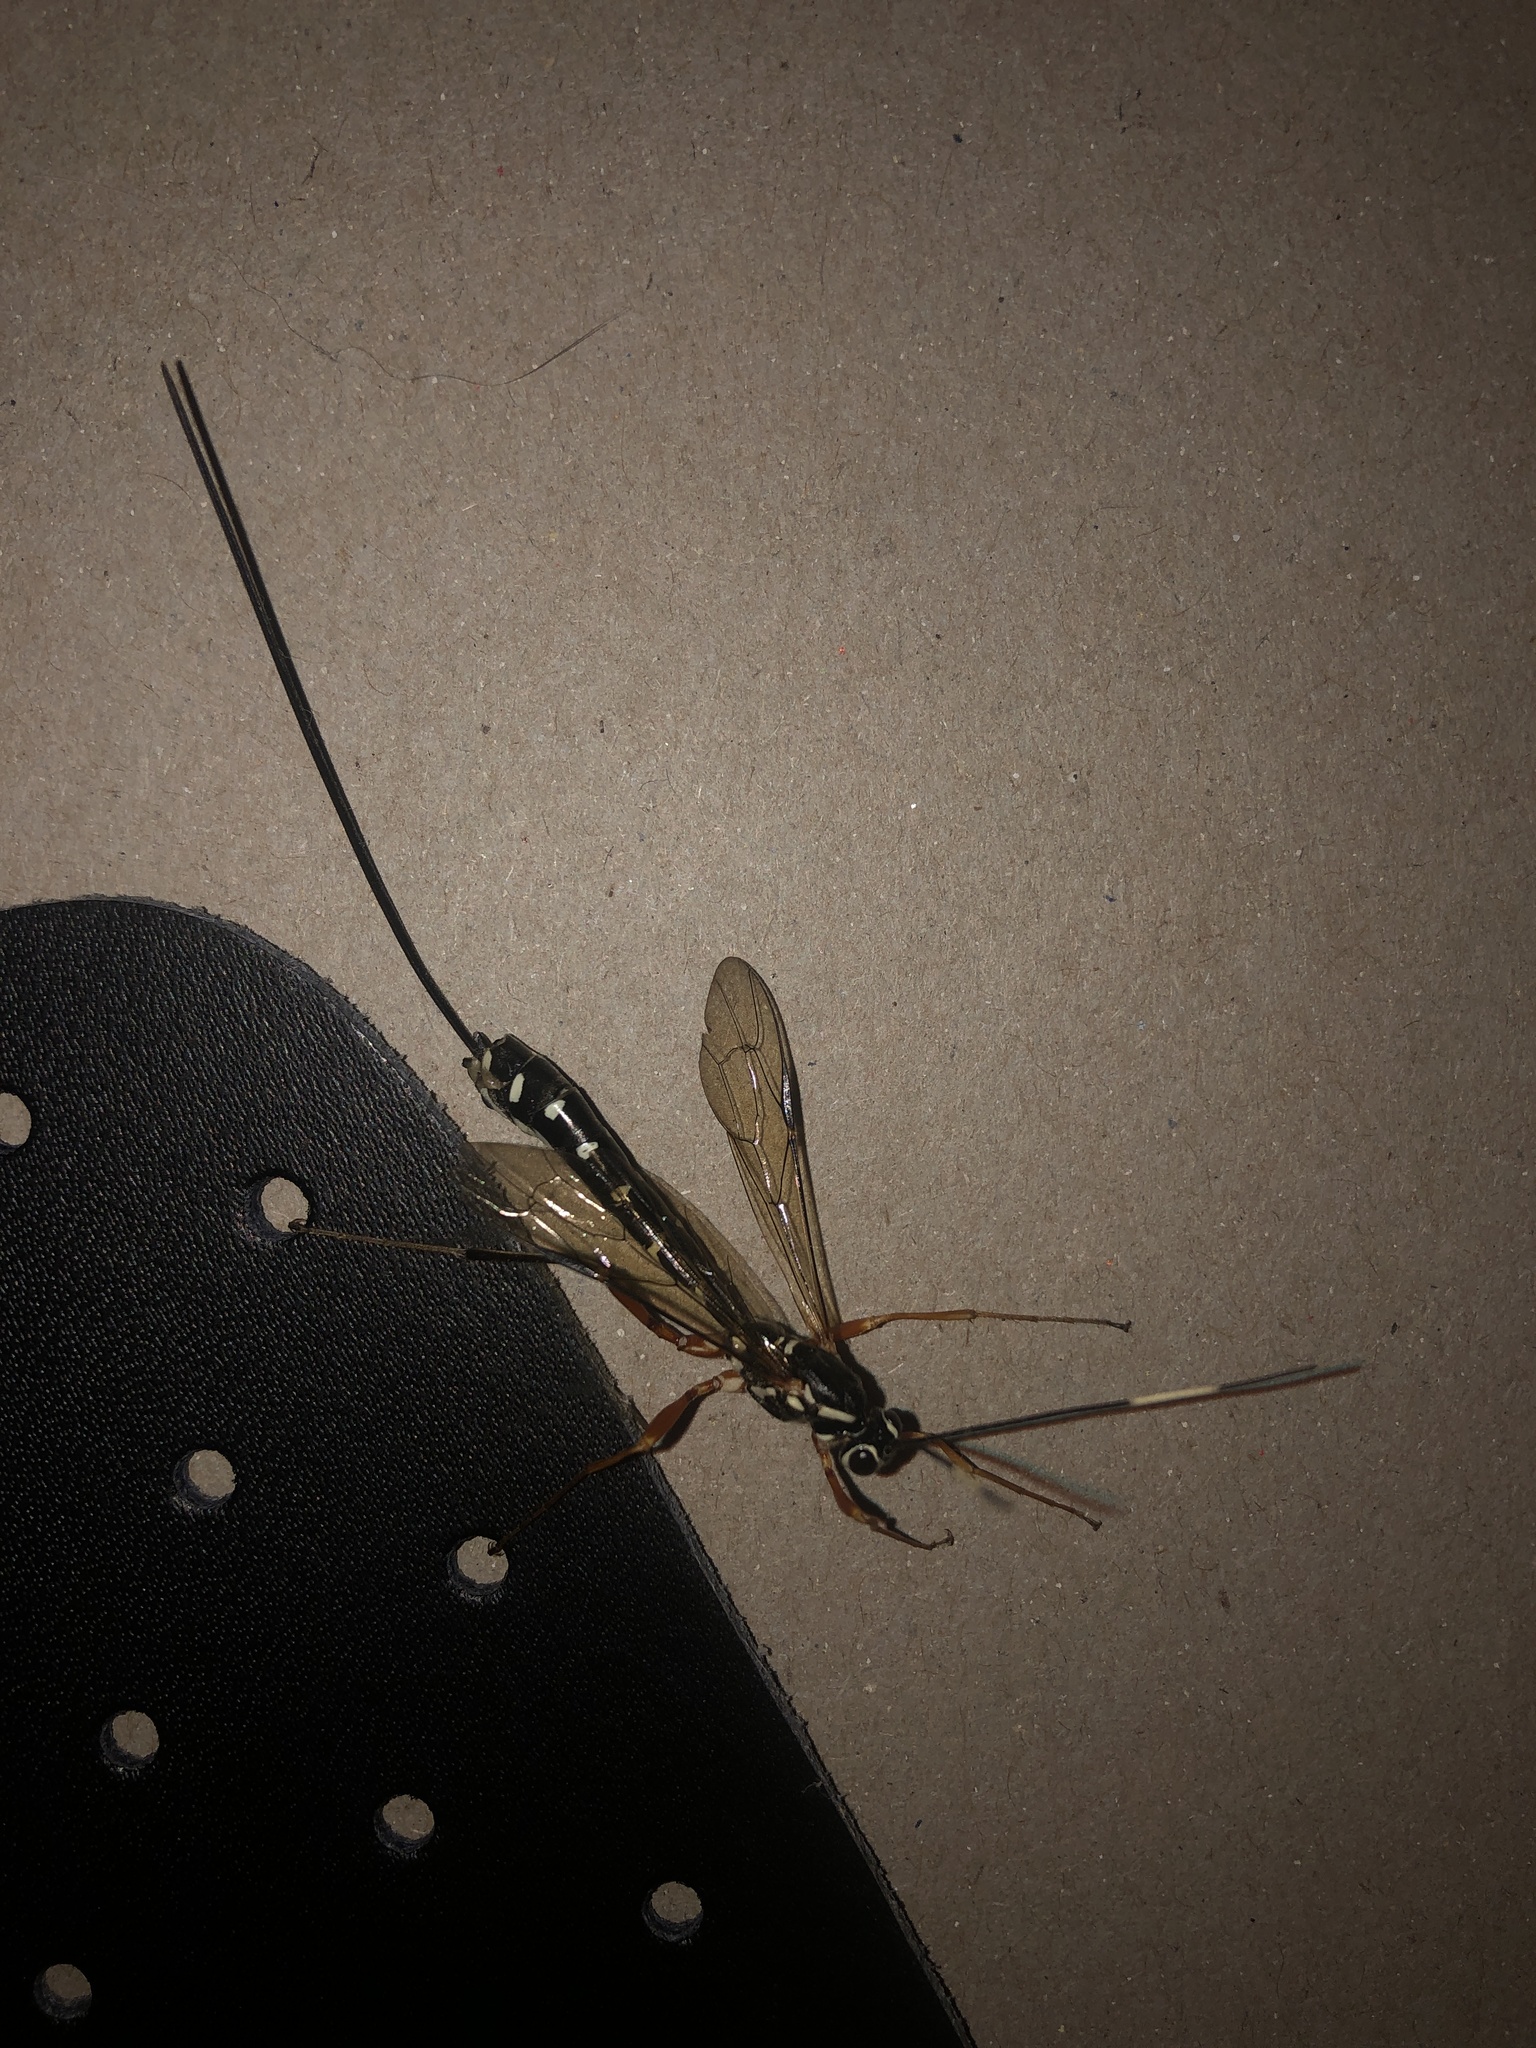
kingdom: Animalia
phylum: Arthropoda
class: Insecta
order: Hymenoptera
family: Ichneumonidae
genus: Rhyssa
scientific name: Rhyssa lineolata
